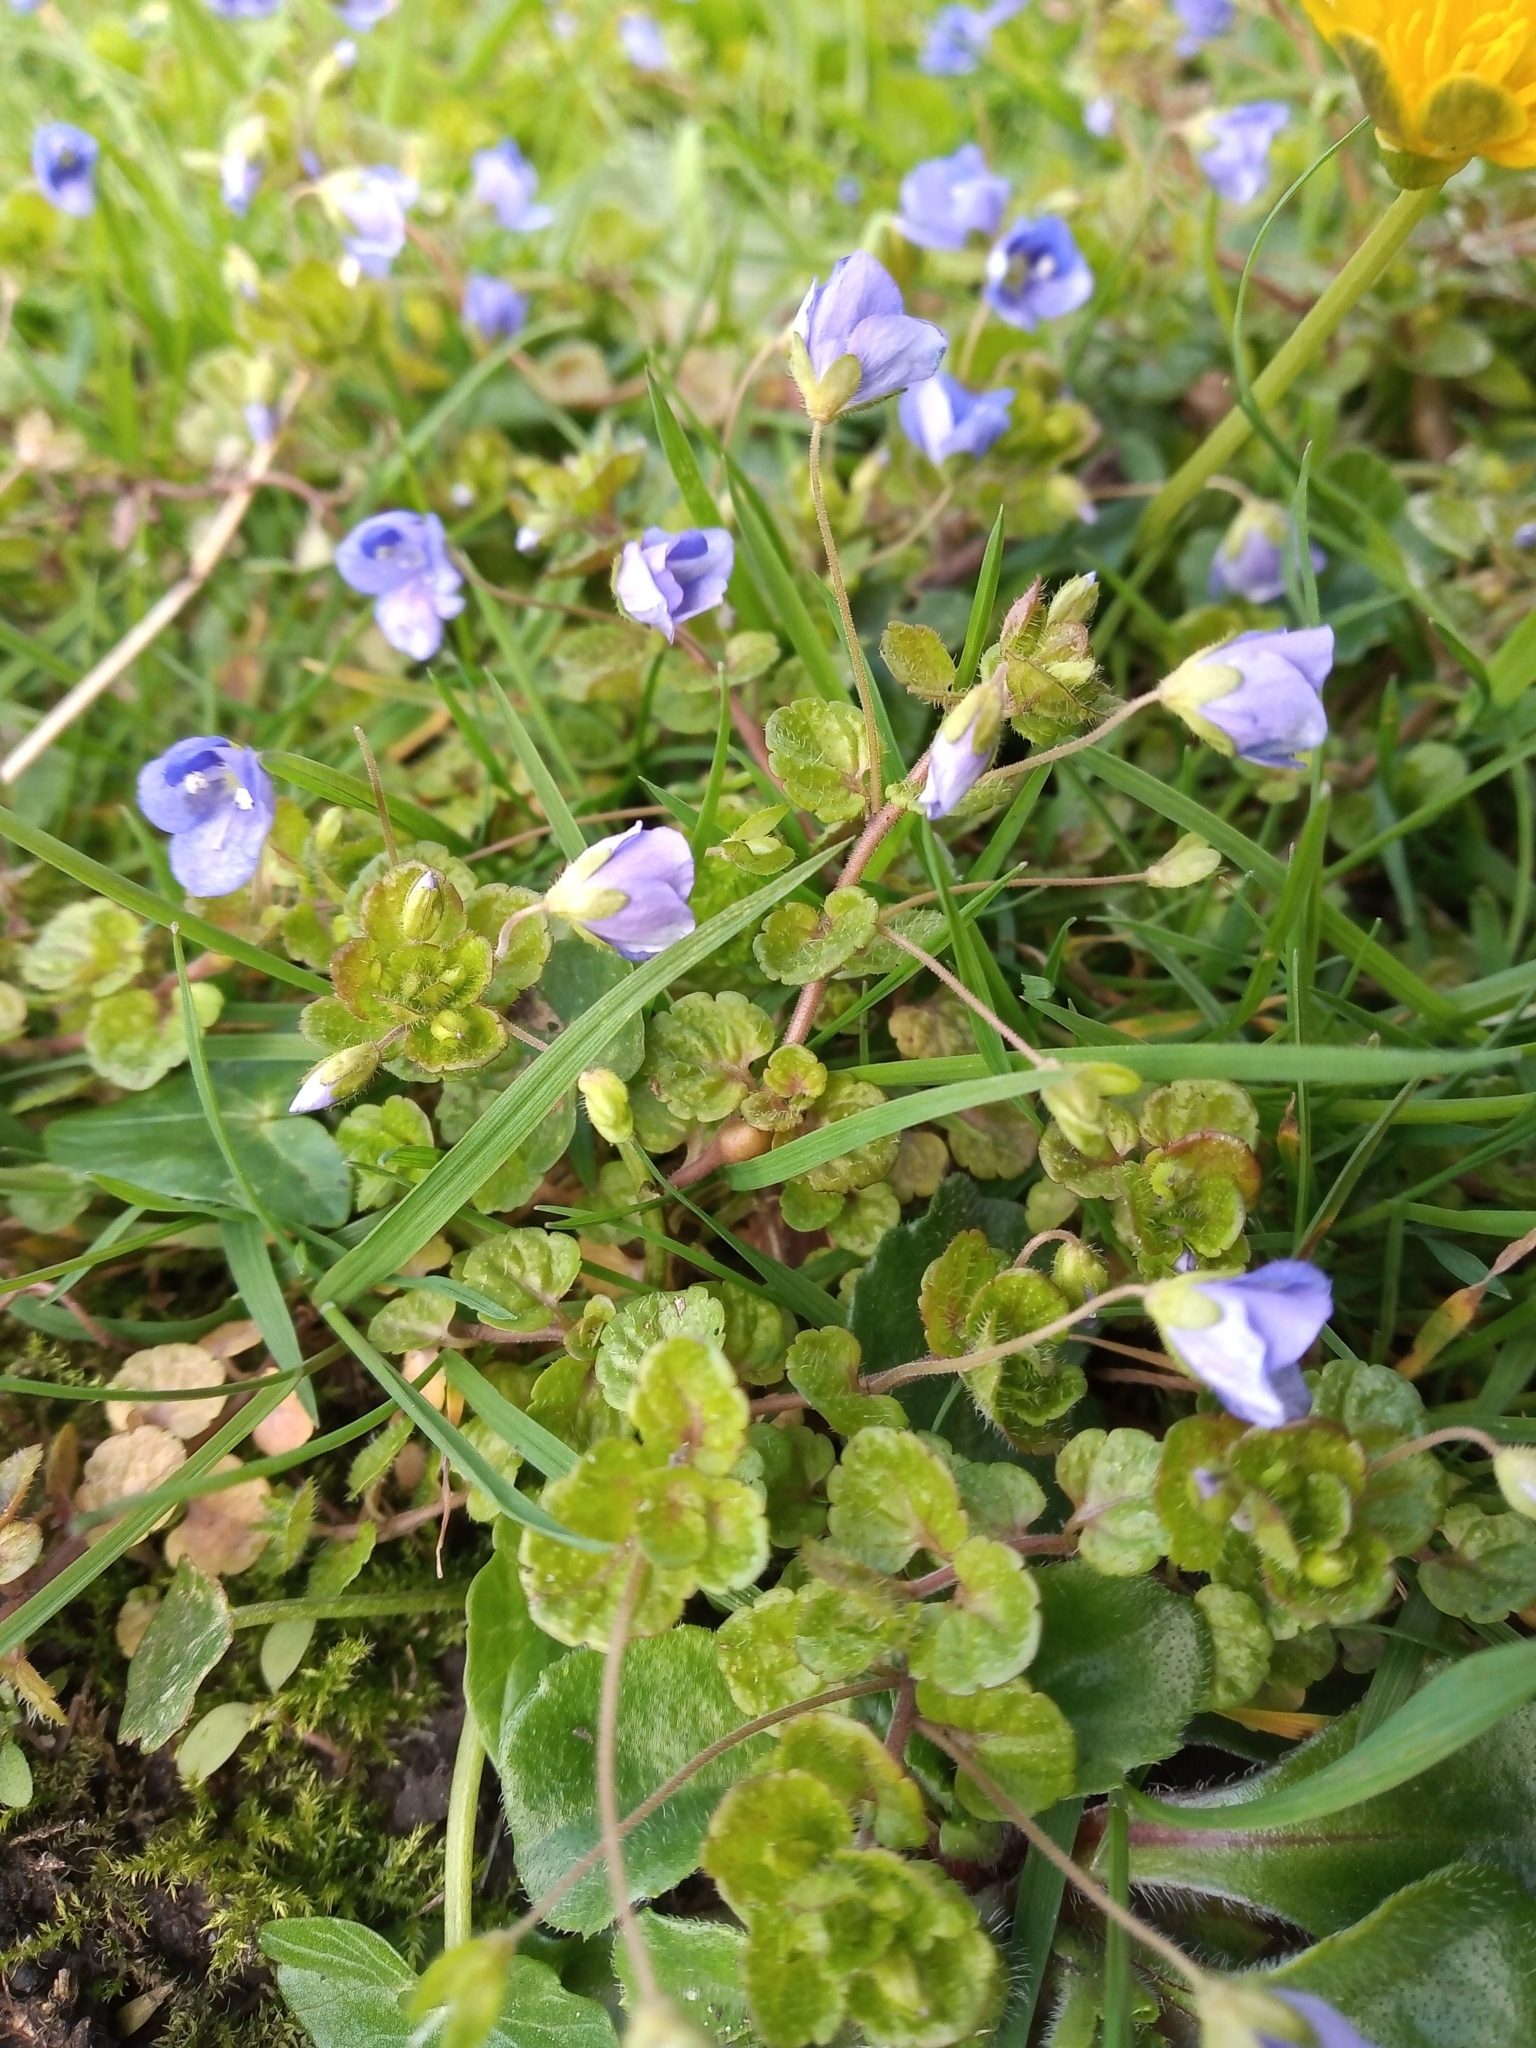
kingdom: Plantae
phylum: Tracheophyta
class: Magnoliopsida
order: Lamiales
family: Plantaginaceae
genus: Veronica
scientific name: Veronica filiformis
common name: Slender speedwell
